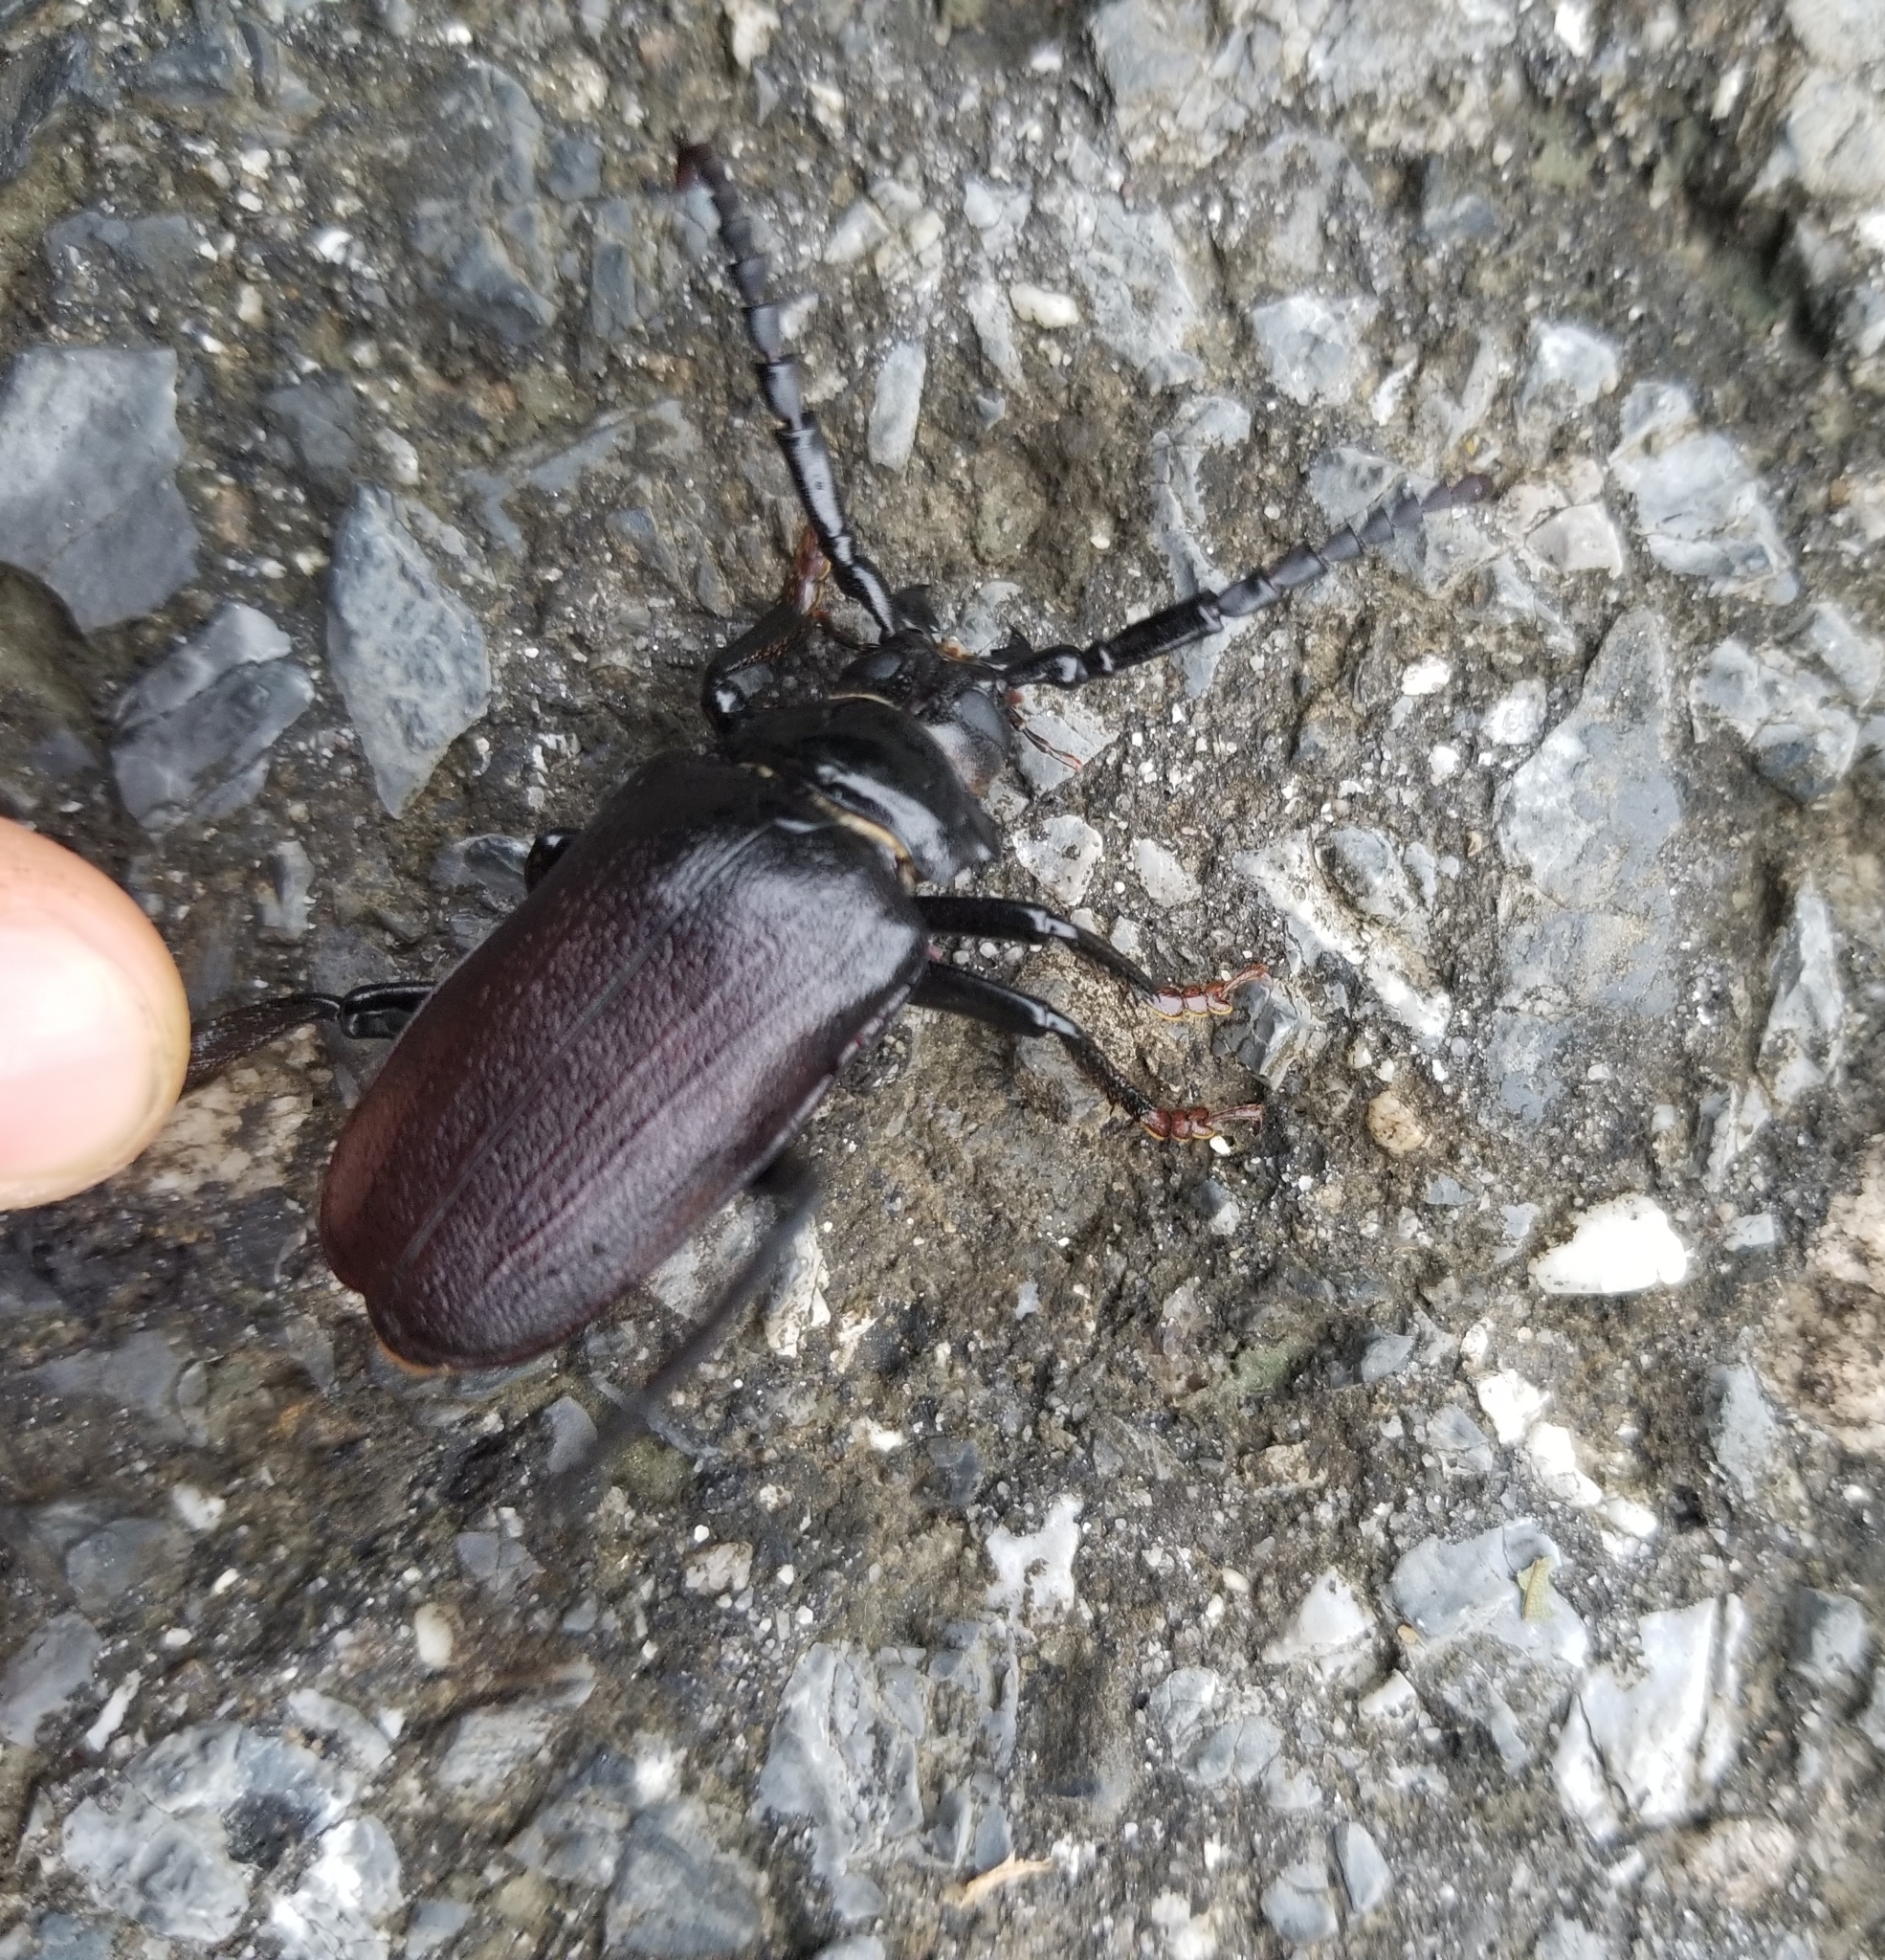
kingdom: Animalia
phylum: Arthropoda
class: Insecta
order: Coleoptera
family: Cerambycidae
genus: Prionus
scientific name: Prionus laticollis
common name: Broad necked prionus
